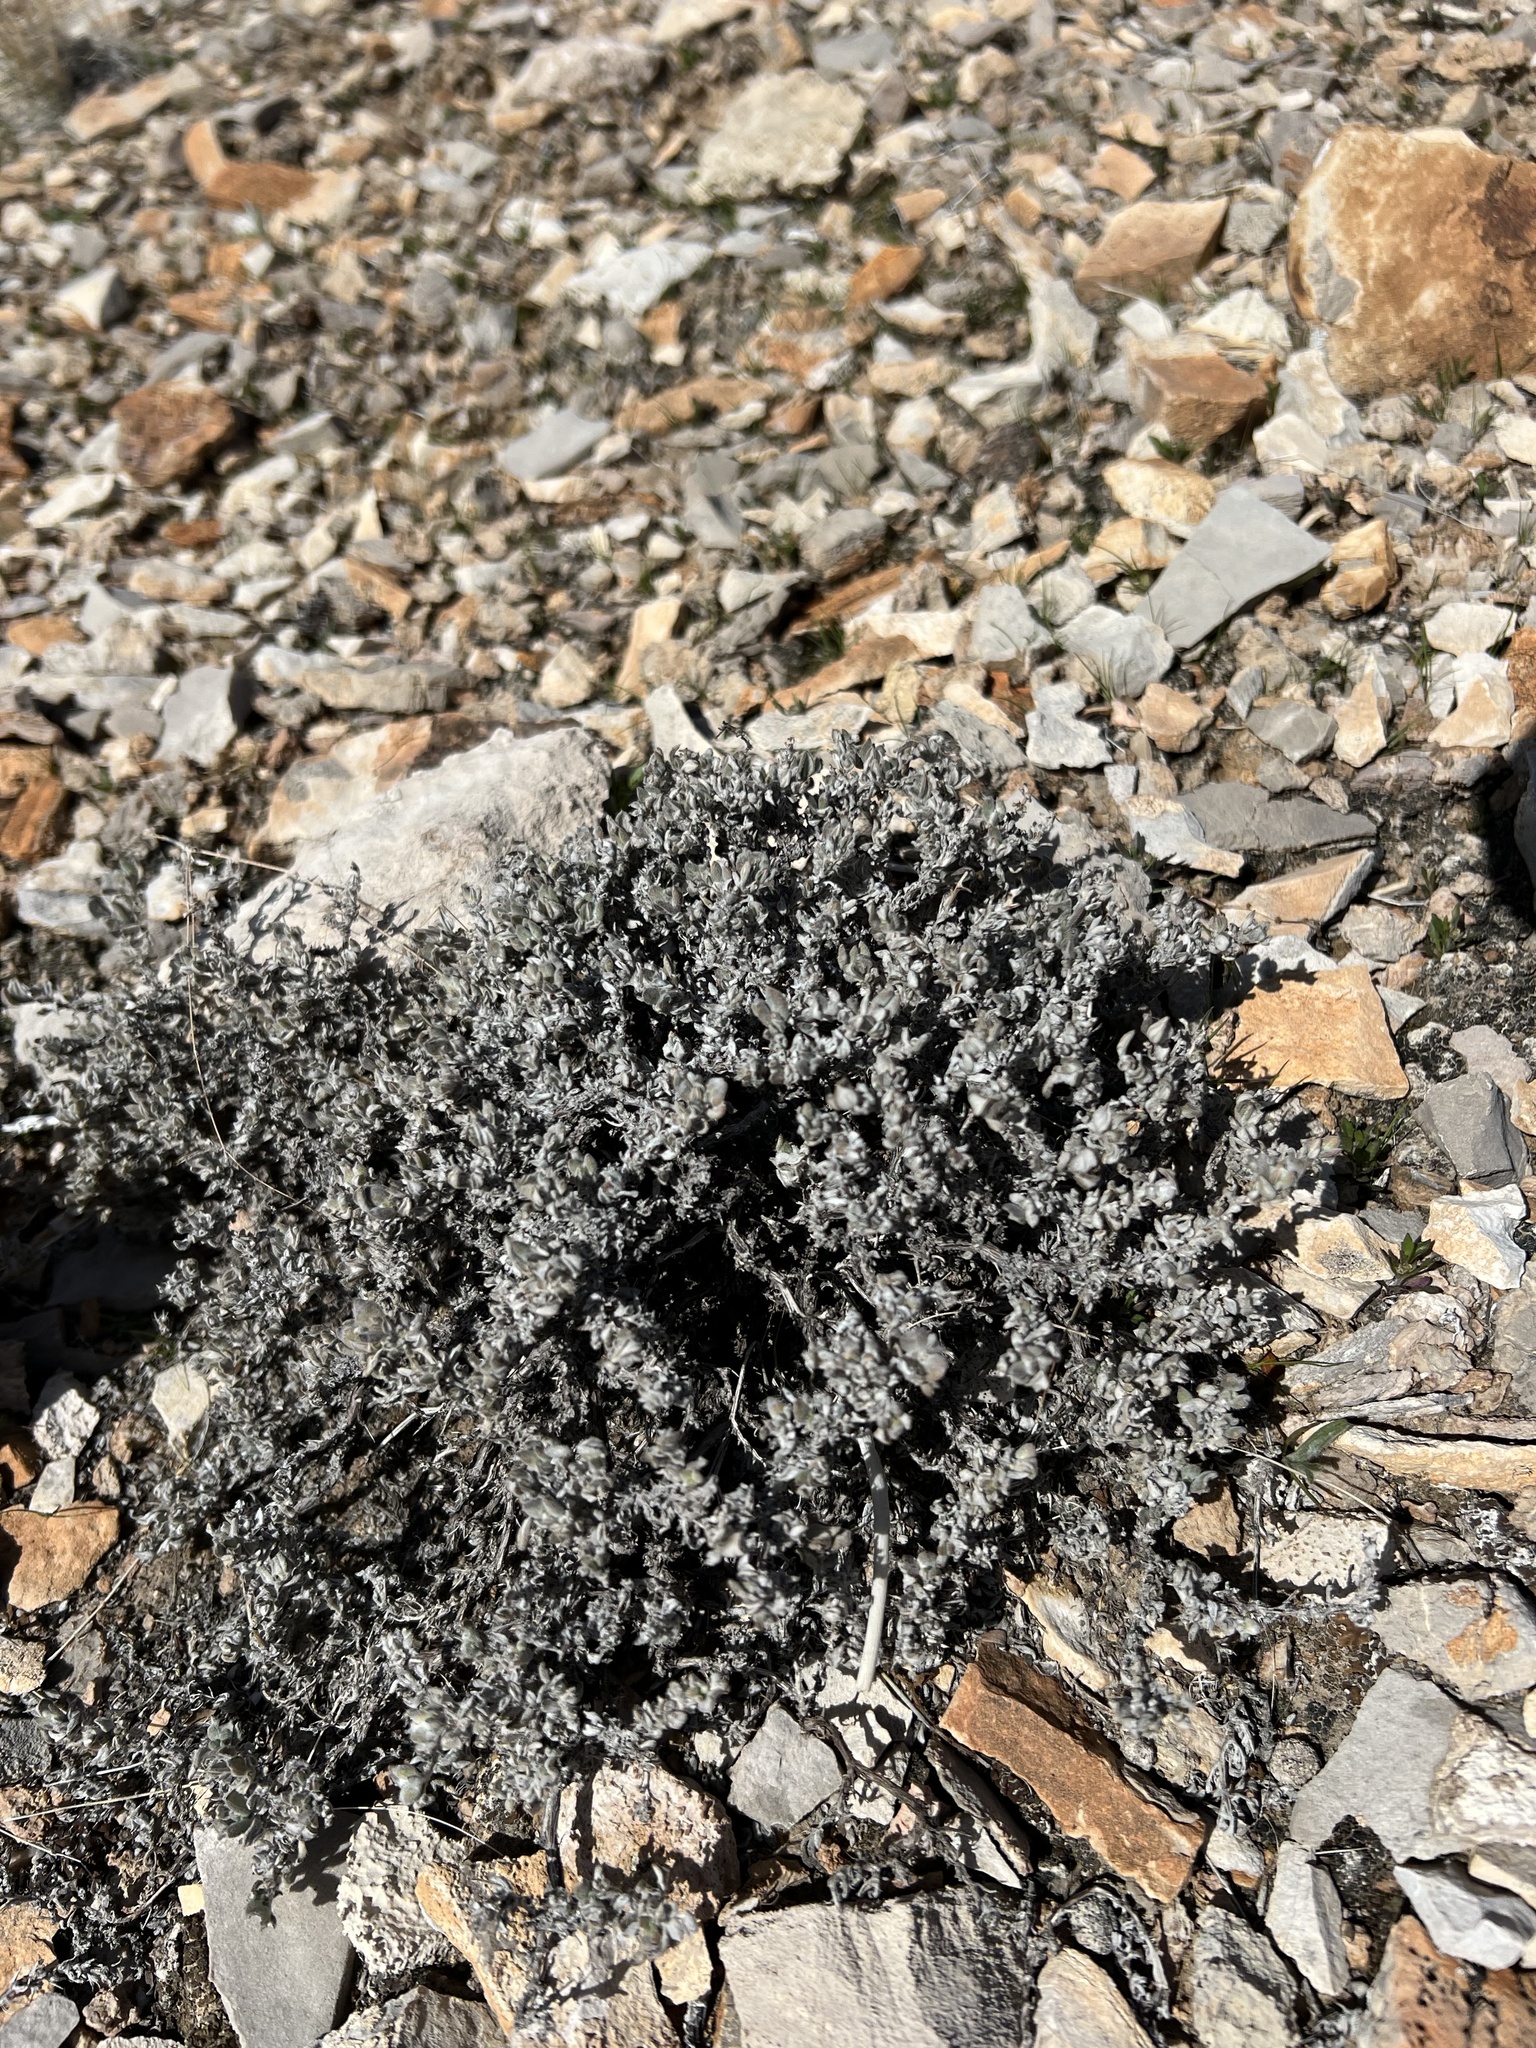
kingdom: Plantae
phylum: Tracheophyta
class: Magnoliopsida
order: Boraginales
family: Ehretiaceae
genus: Tiquilia
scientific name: Tiquilia canescens
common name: Hairy tiquilia
